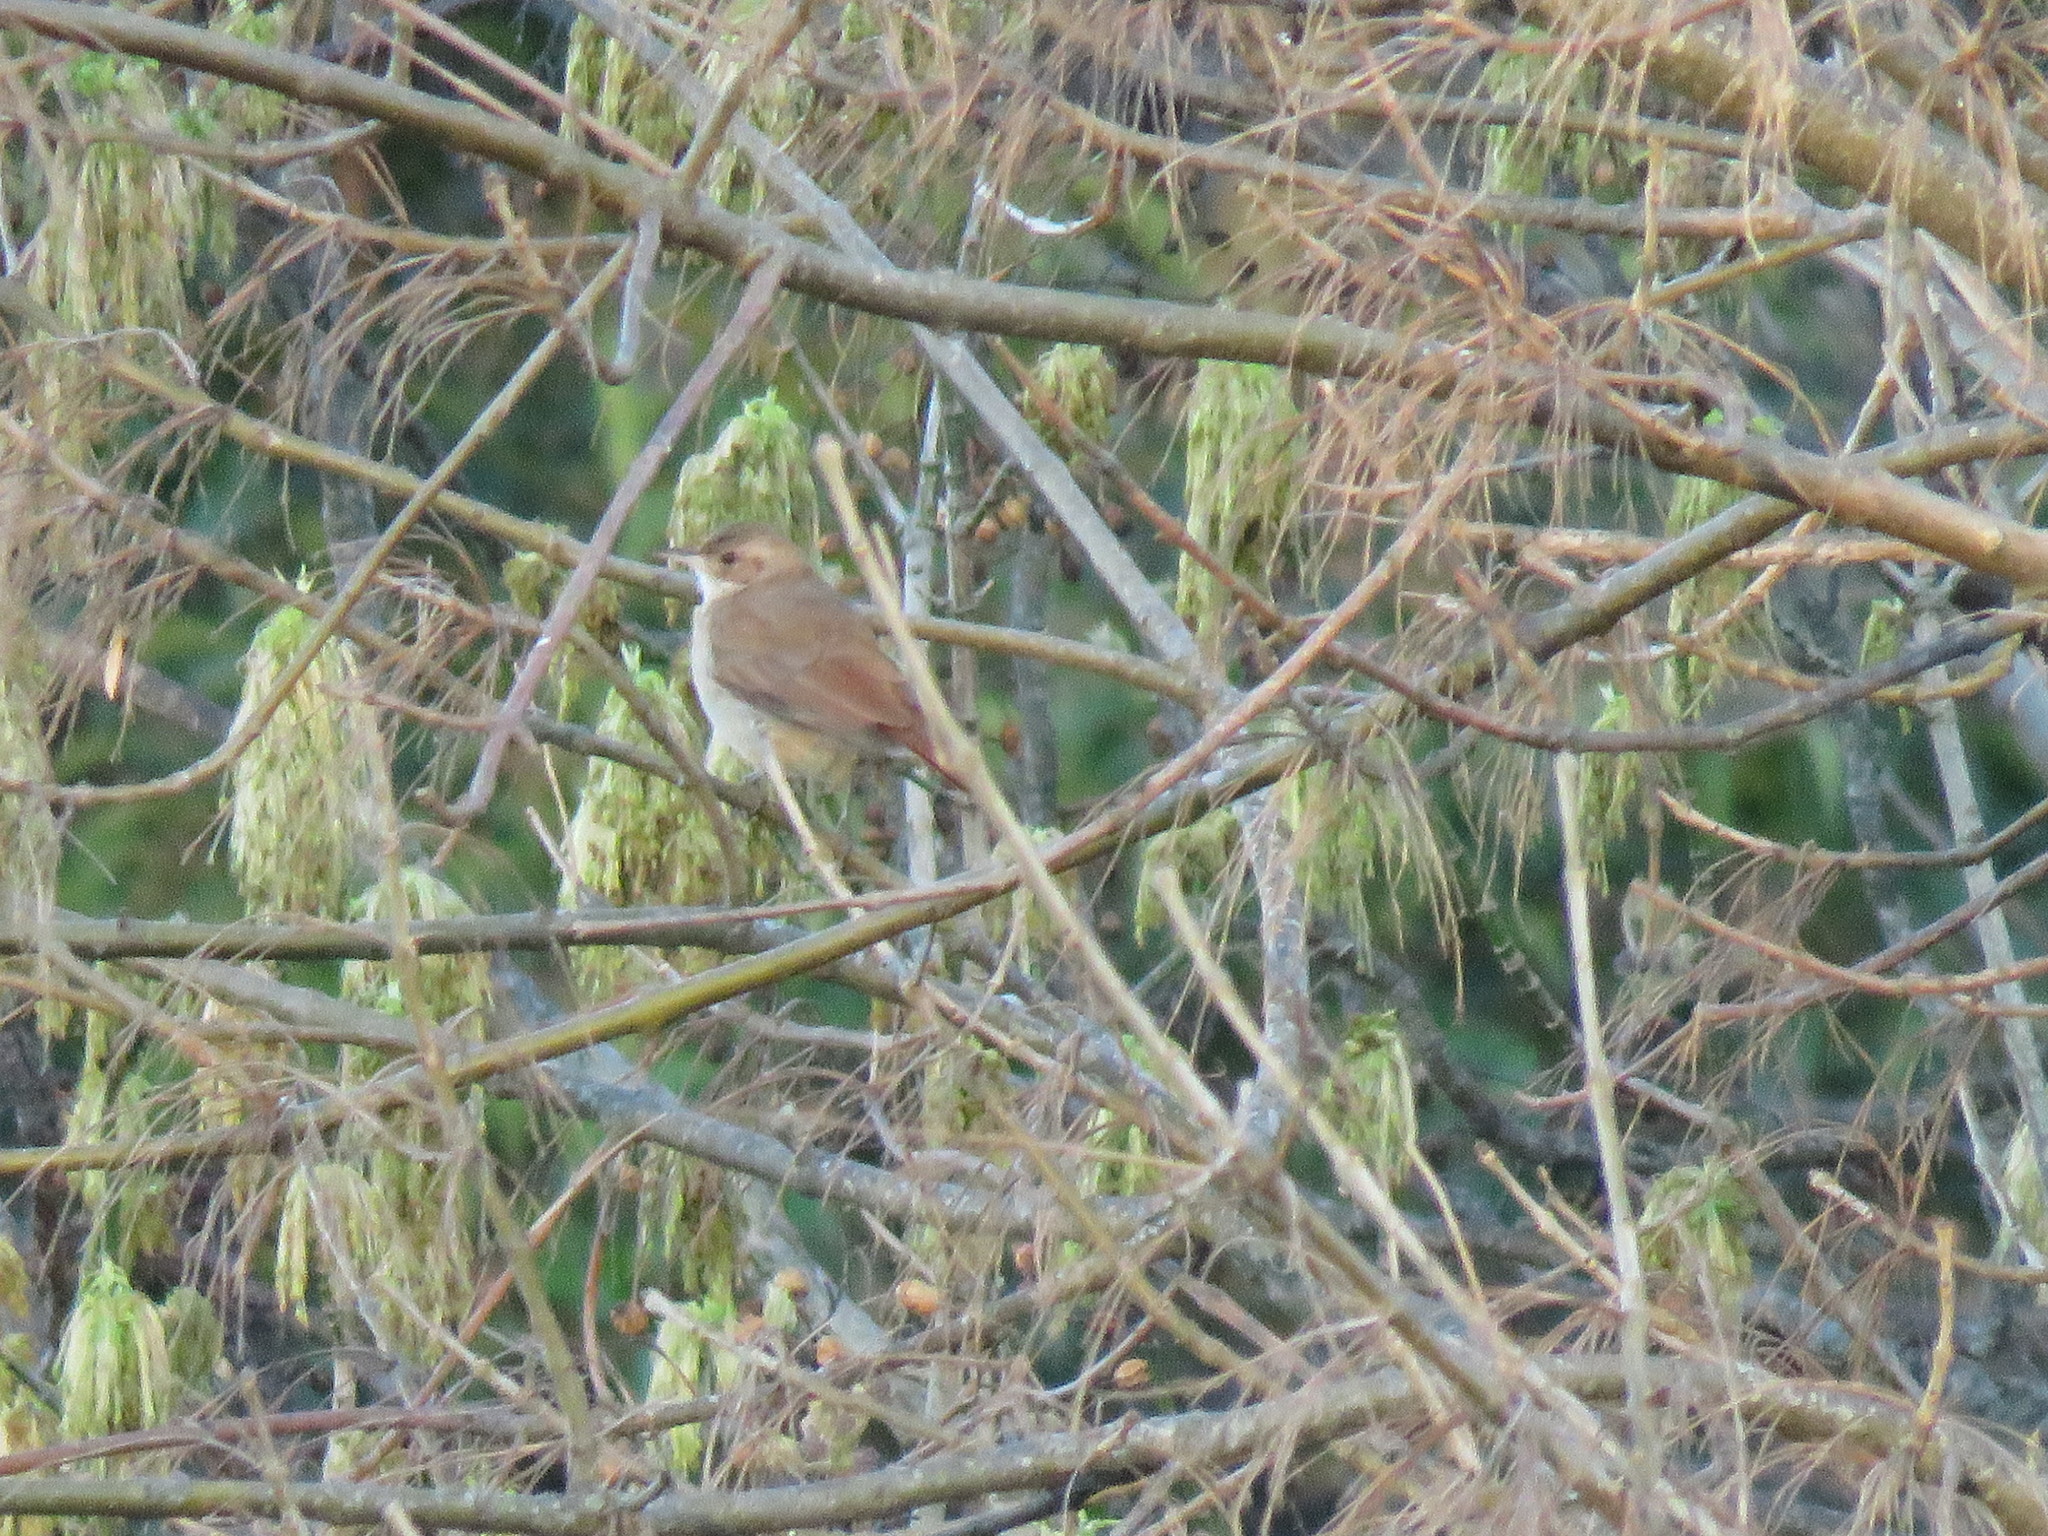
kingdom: Animalia
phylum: Chordata
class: Aves
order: Passeriformes
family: Furnariidae
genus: Furnarius
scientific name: Furnarius rufus
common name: Rufous hornero
